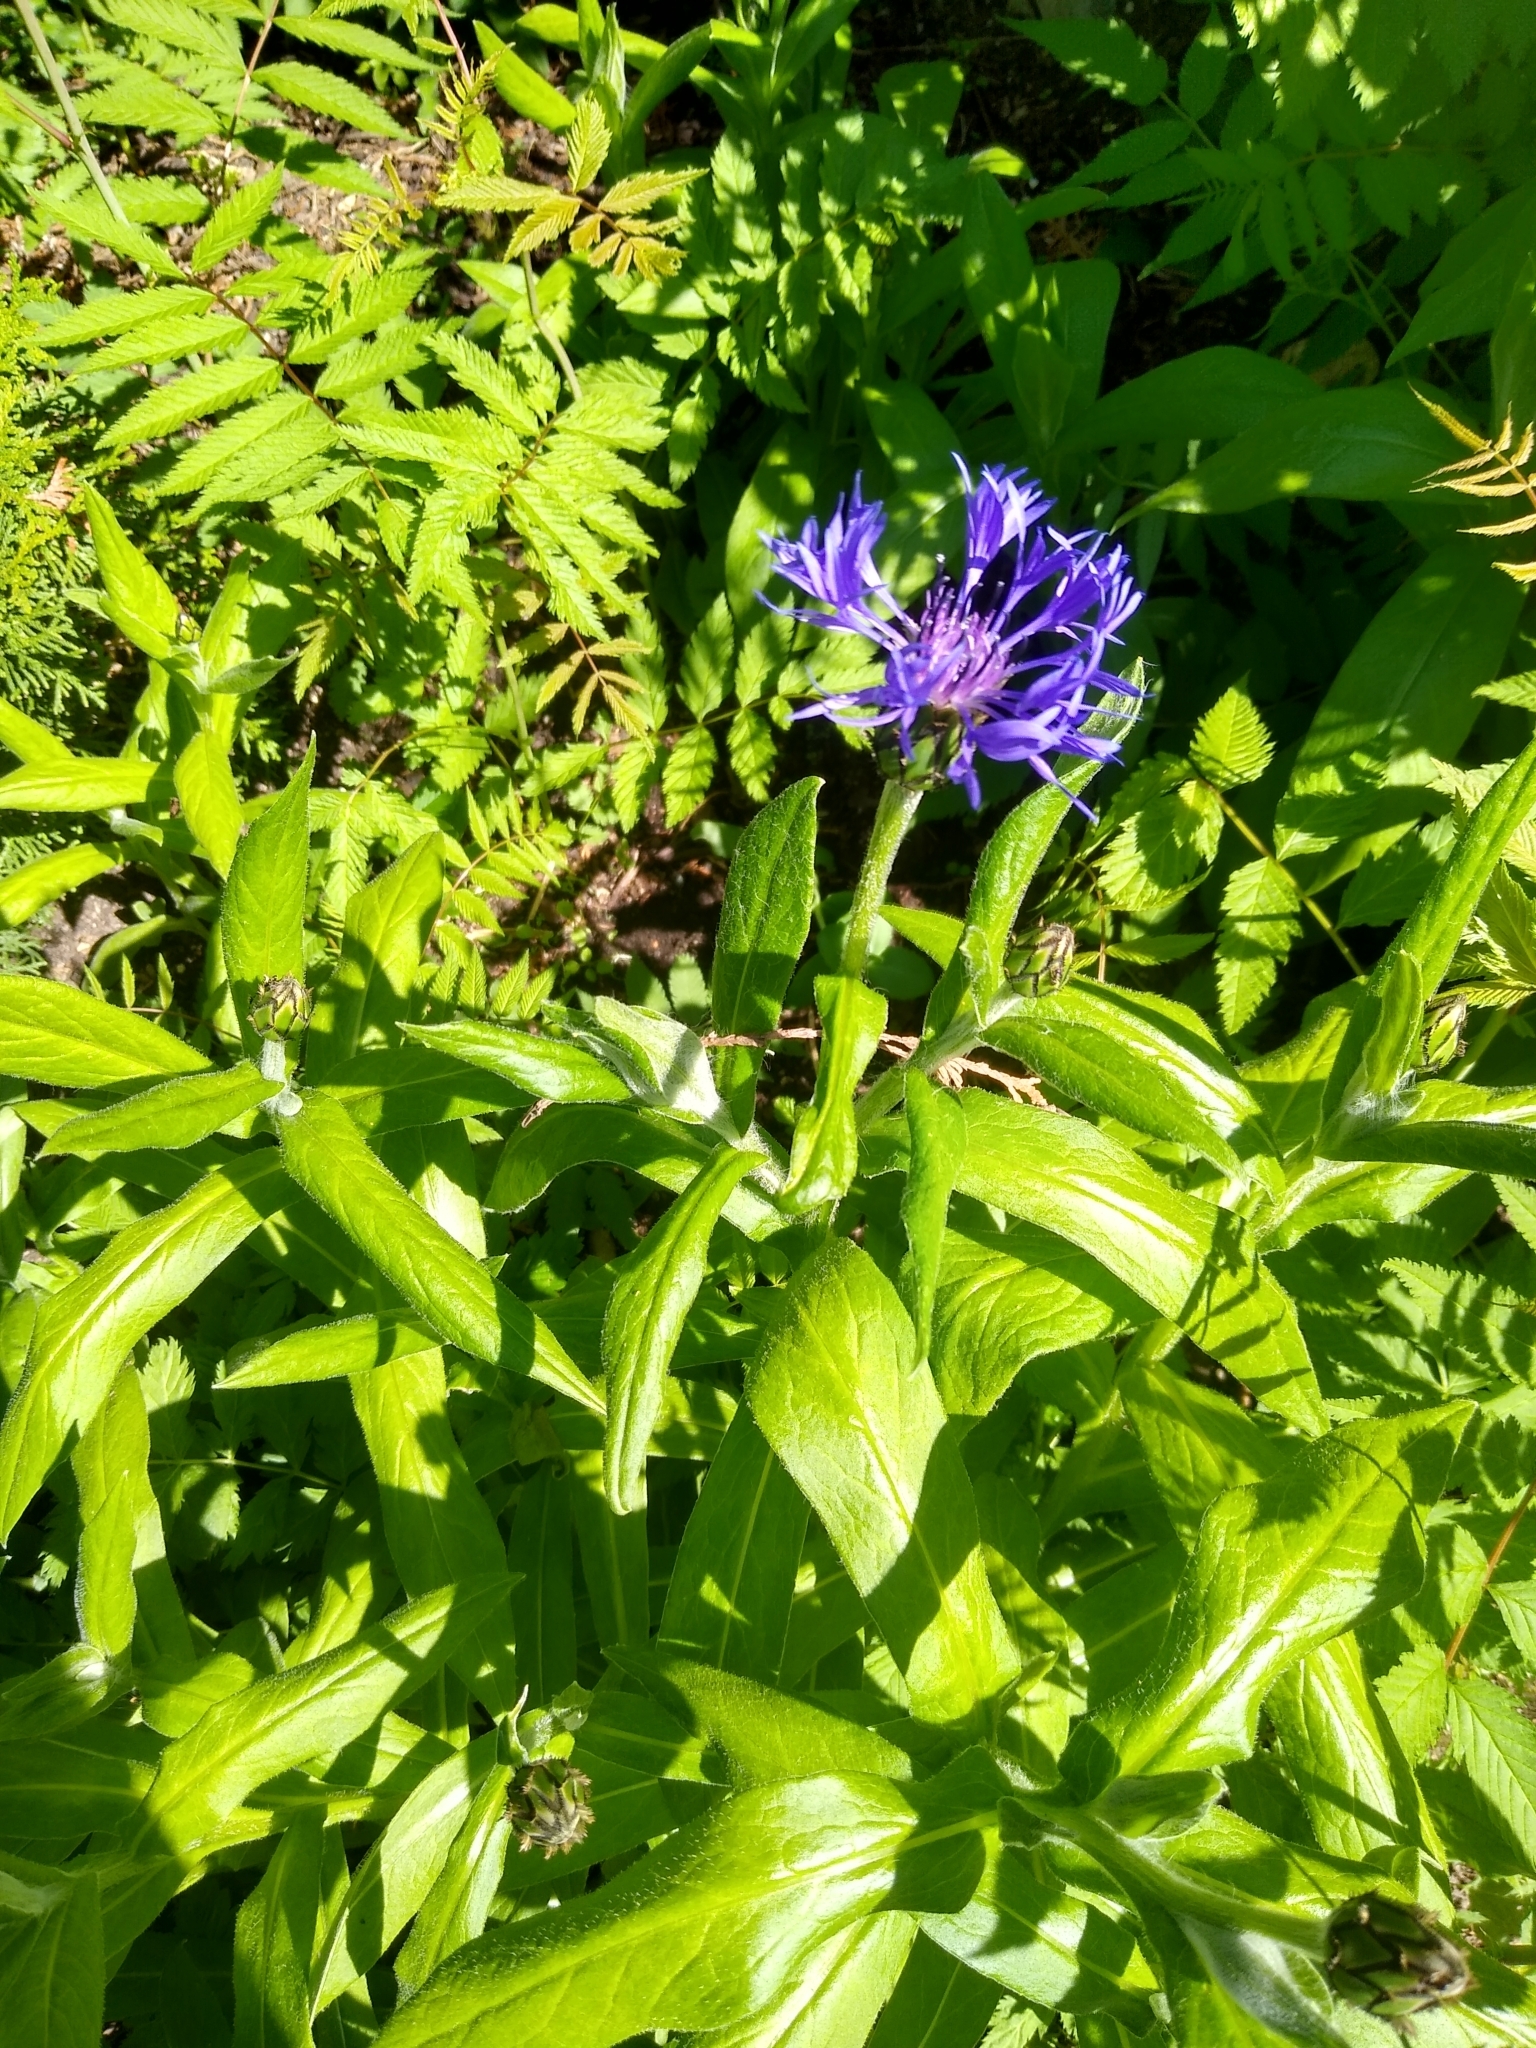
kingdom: Plantae
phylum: Tracheophyta
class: Magnoliopsida
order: Asterales
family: Asteraceae
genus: Centaurea
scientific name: Centaurea montana
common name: Perennial cornflower
